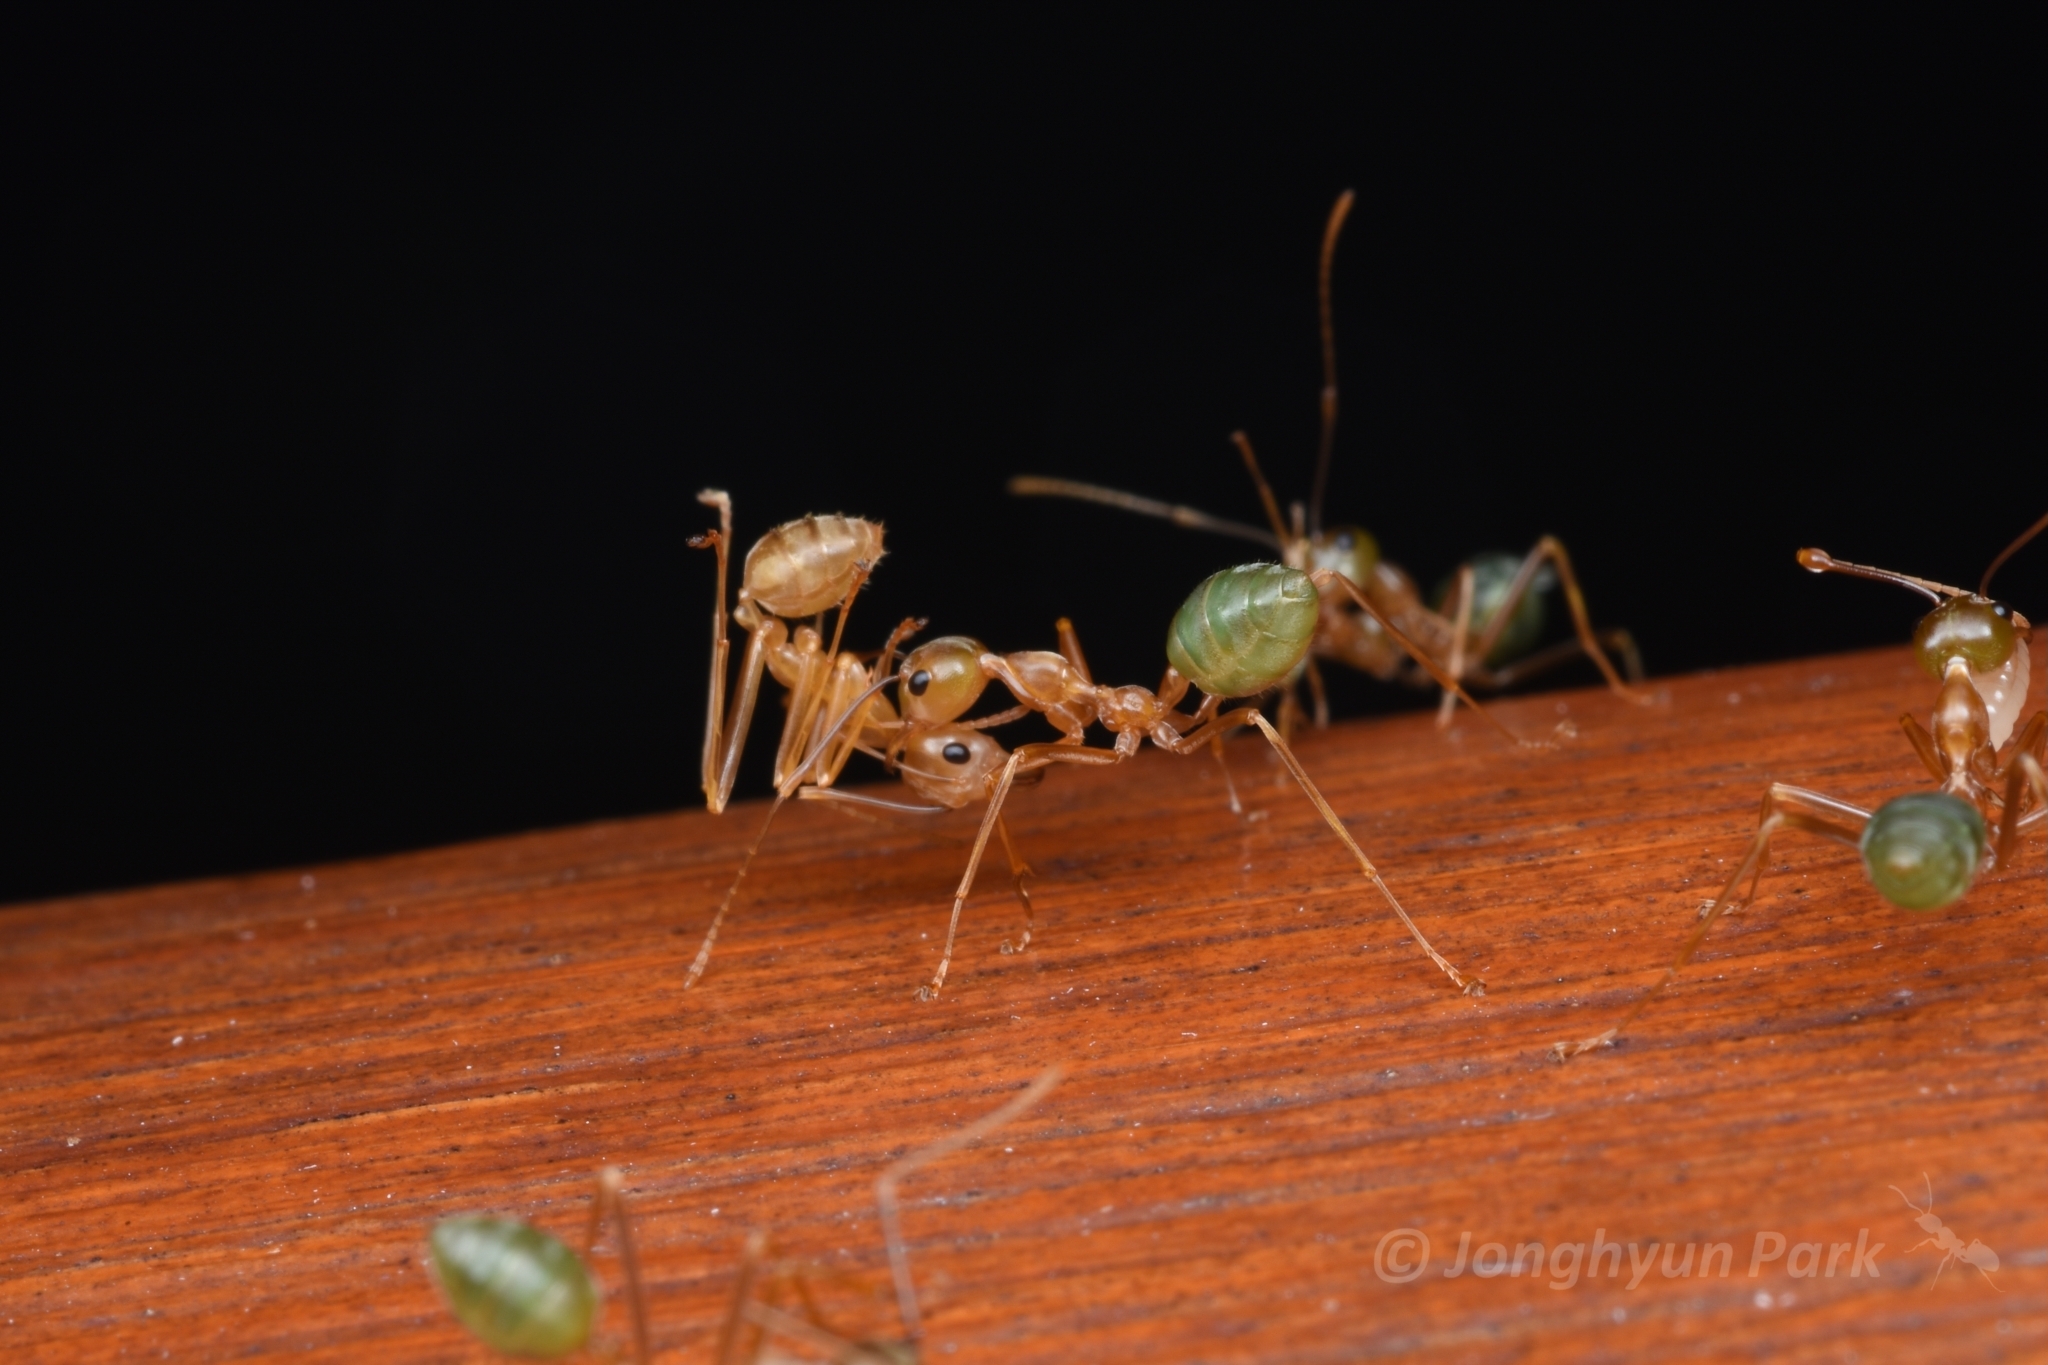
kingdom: Animalia
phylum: Arthropoda
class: Insecta
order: Hymenoptera
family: Formicidae
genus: Oecophylla
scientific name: Oecophylla smaragdina
